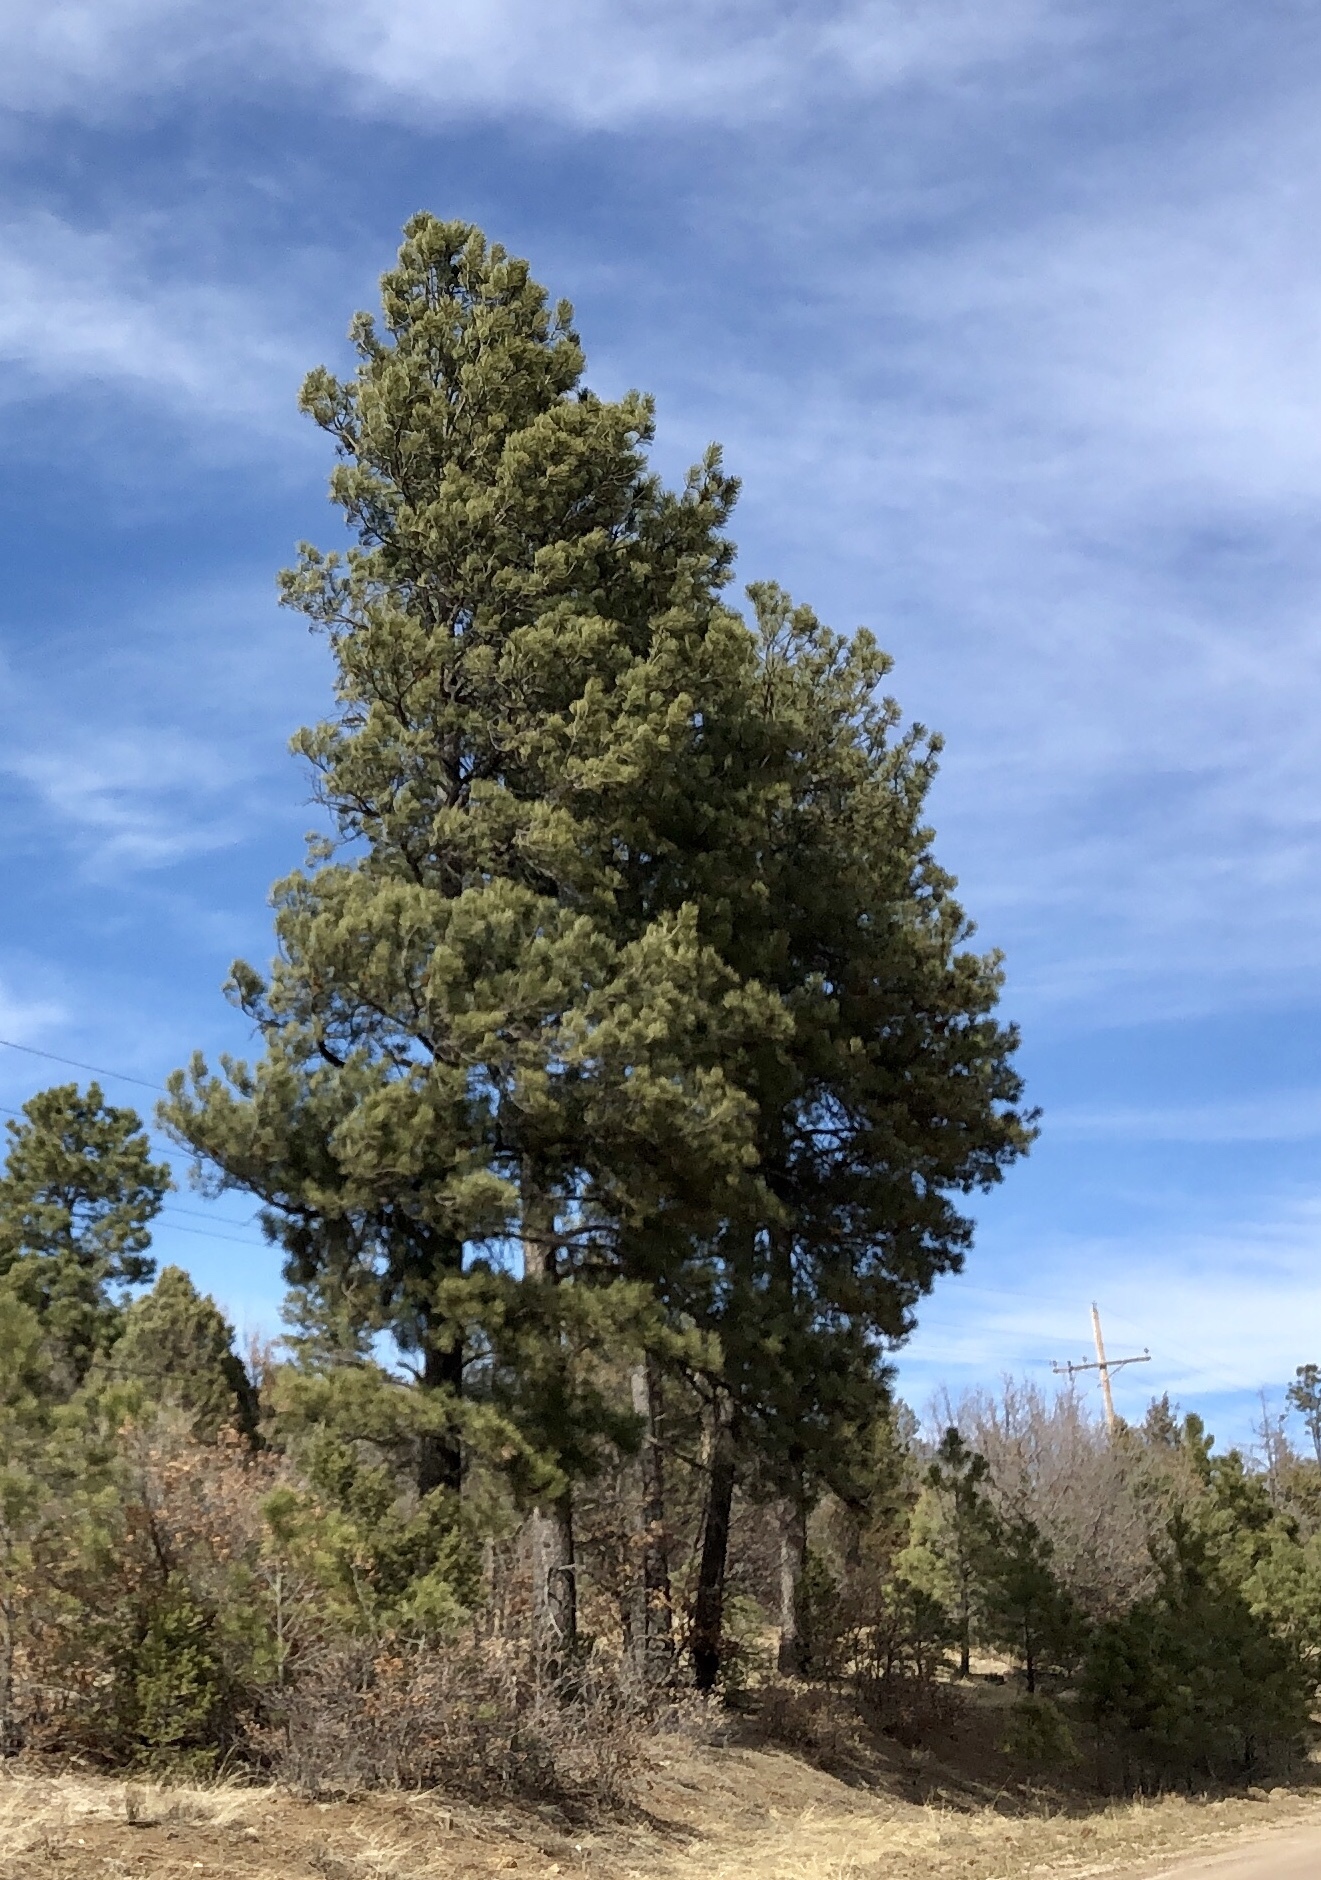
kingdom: Plantae
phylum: Tracheophyta
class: Pinopsida
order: Pinales
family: Pinaceae
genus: Pinus
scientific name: Pinus ponderosa
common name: Western yellow-pine
